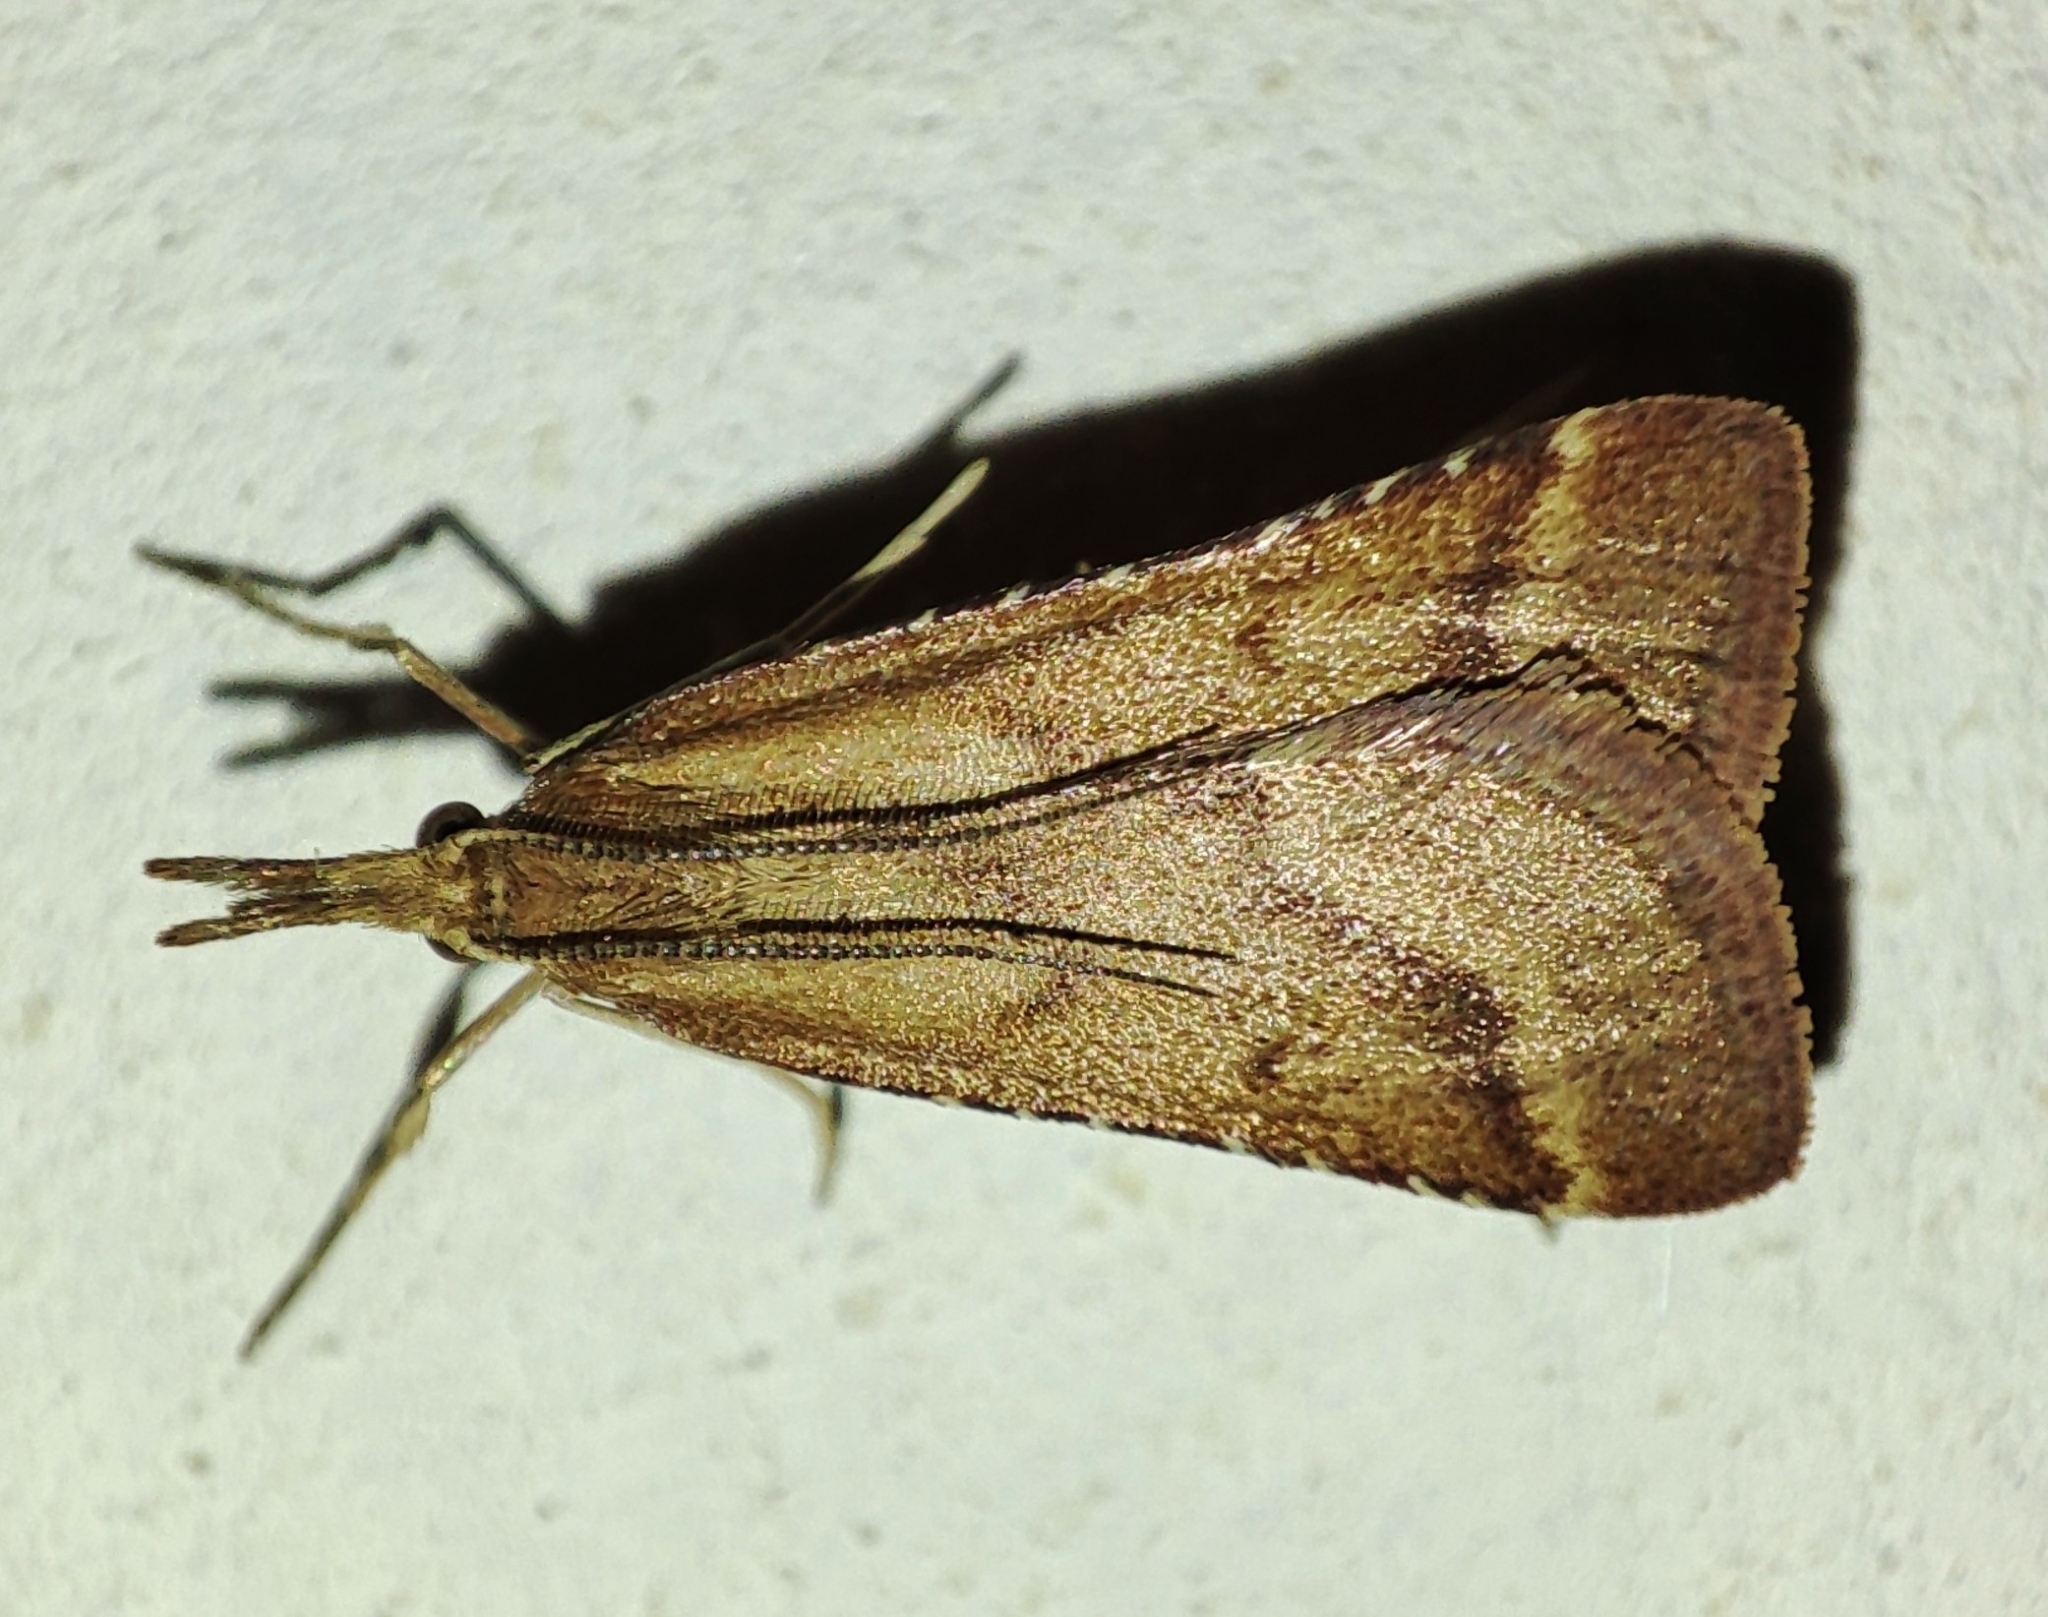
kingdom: Animalia
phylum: Arthropoda
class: Insecta
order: Lepidoptera
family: Pyralidae
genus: Synaphe
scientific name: Synaphe punctalis
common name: Long-legged tabby
